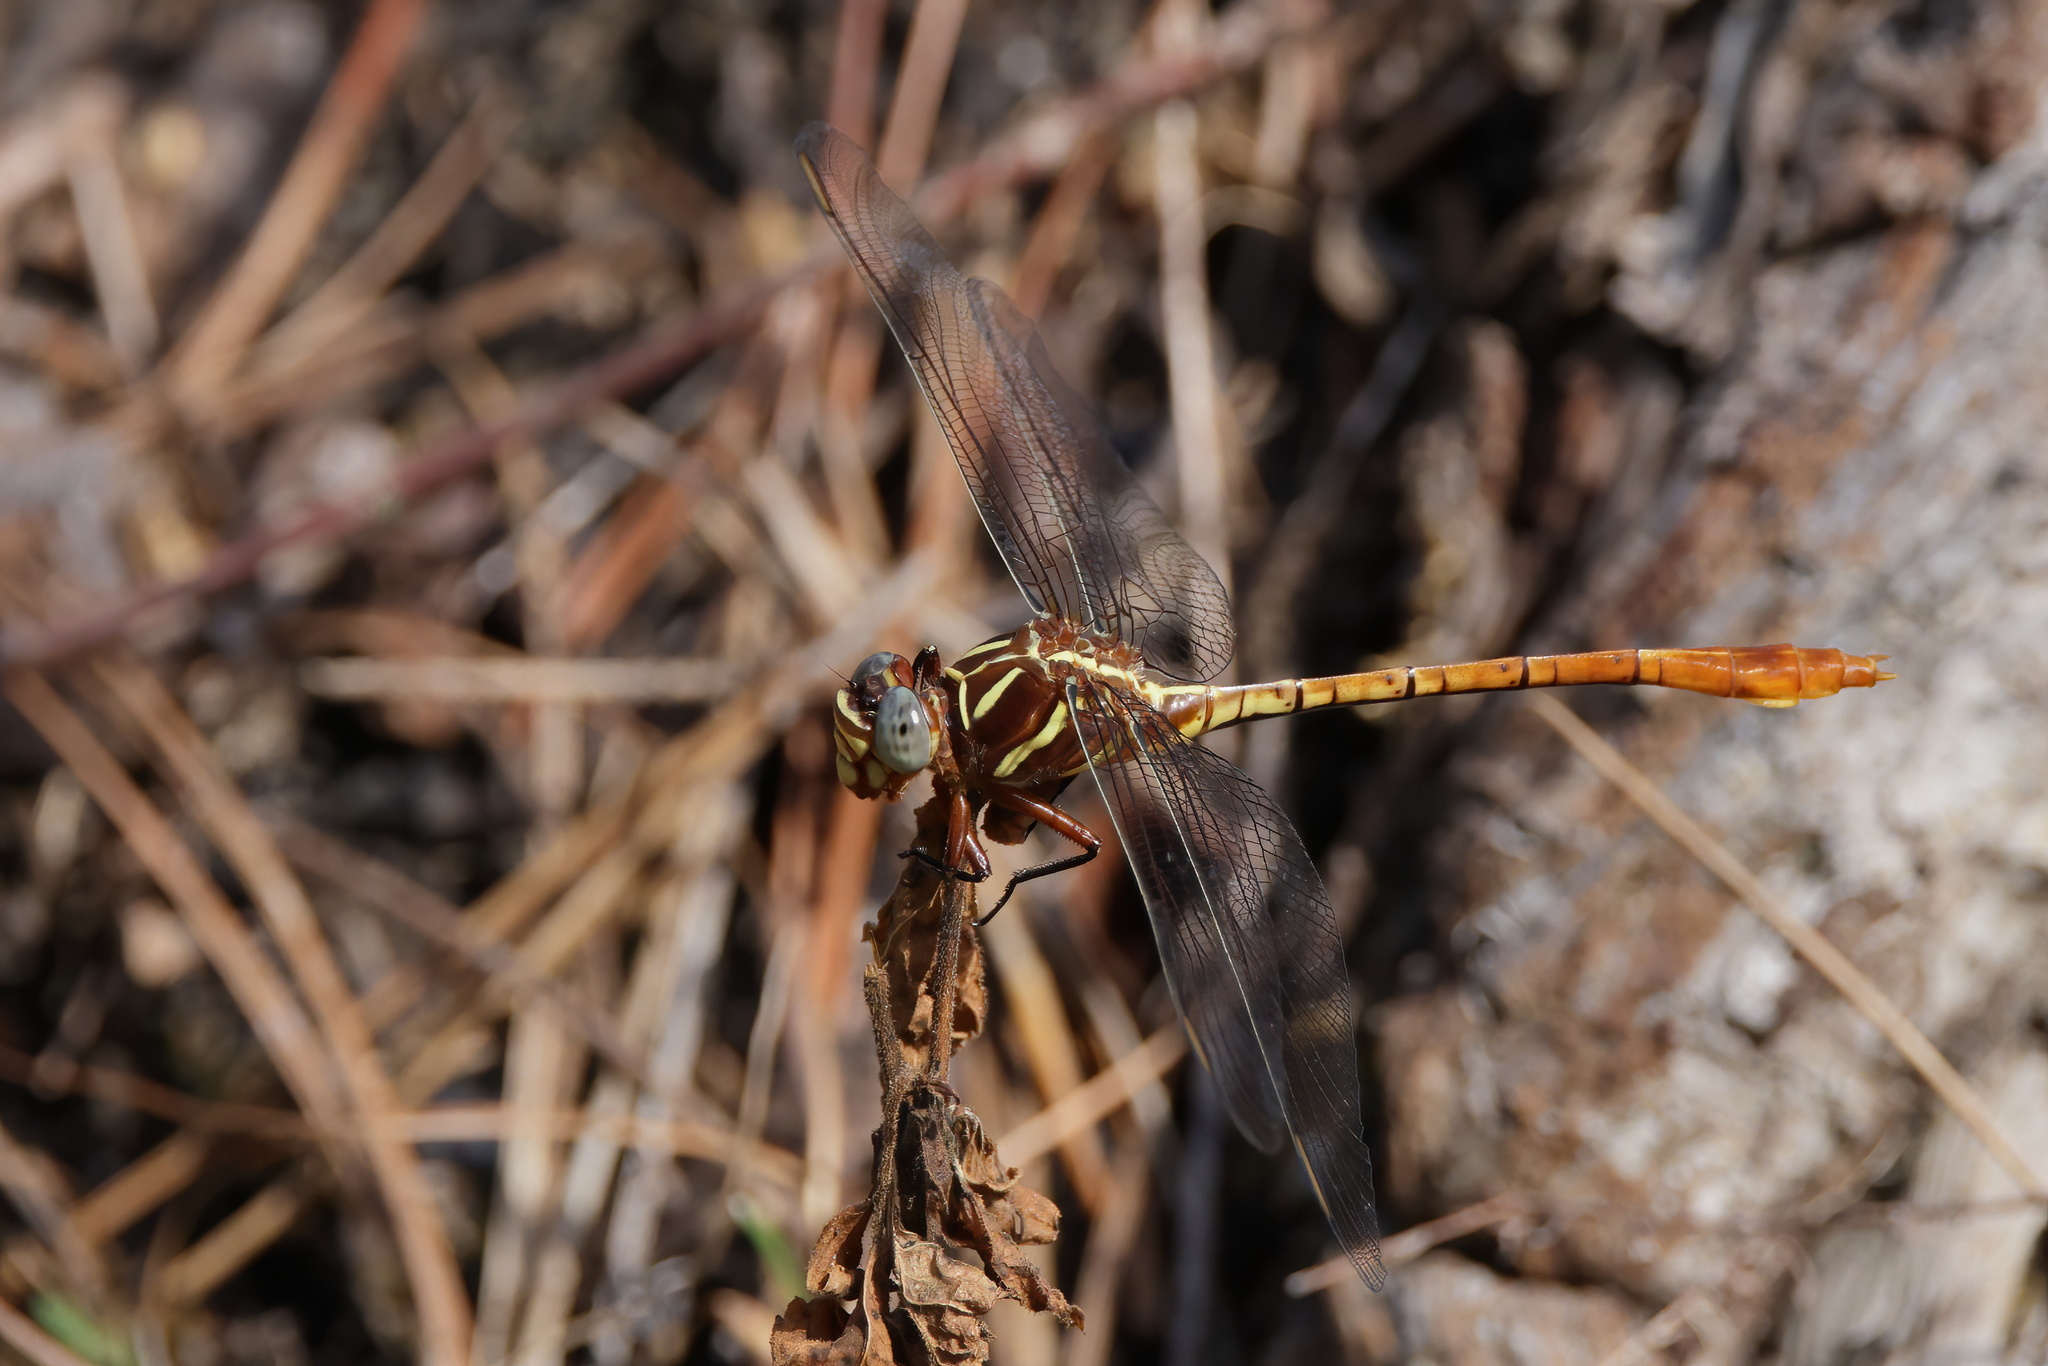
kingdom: Animalia
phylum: Arthropoda
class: Insecta
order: Odonata
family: Gomphidae
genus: Aphylla
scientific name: Aphylla williamsoni
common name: Two-striped forceptail
